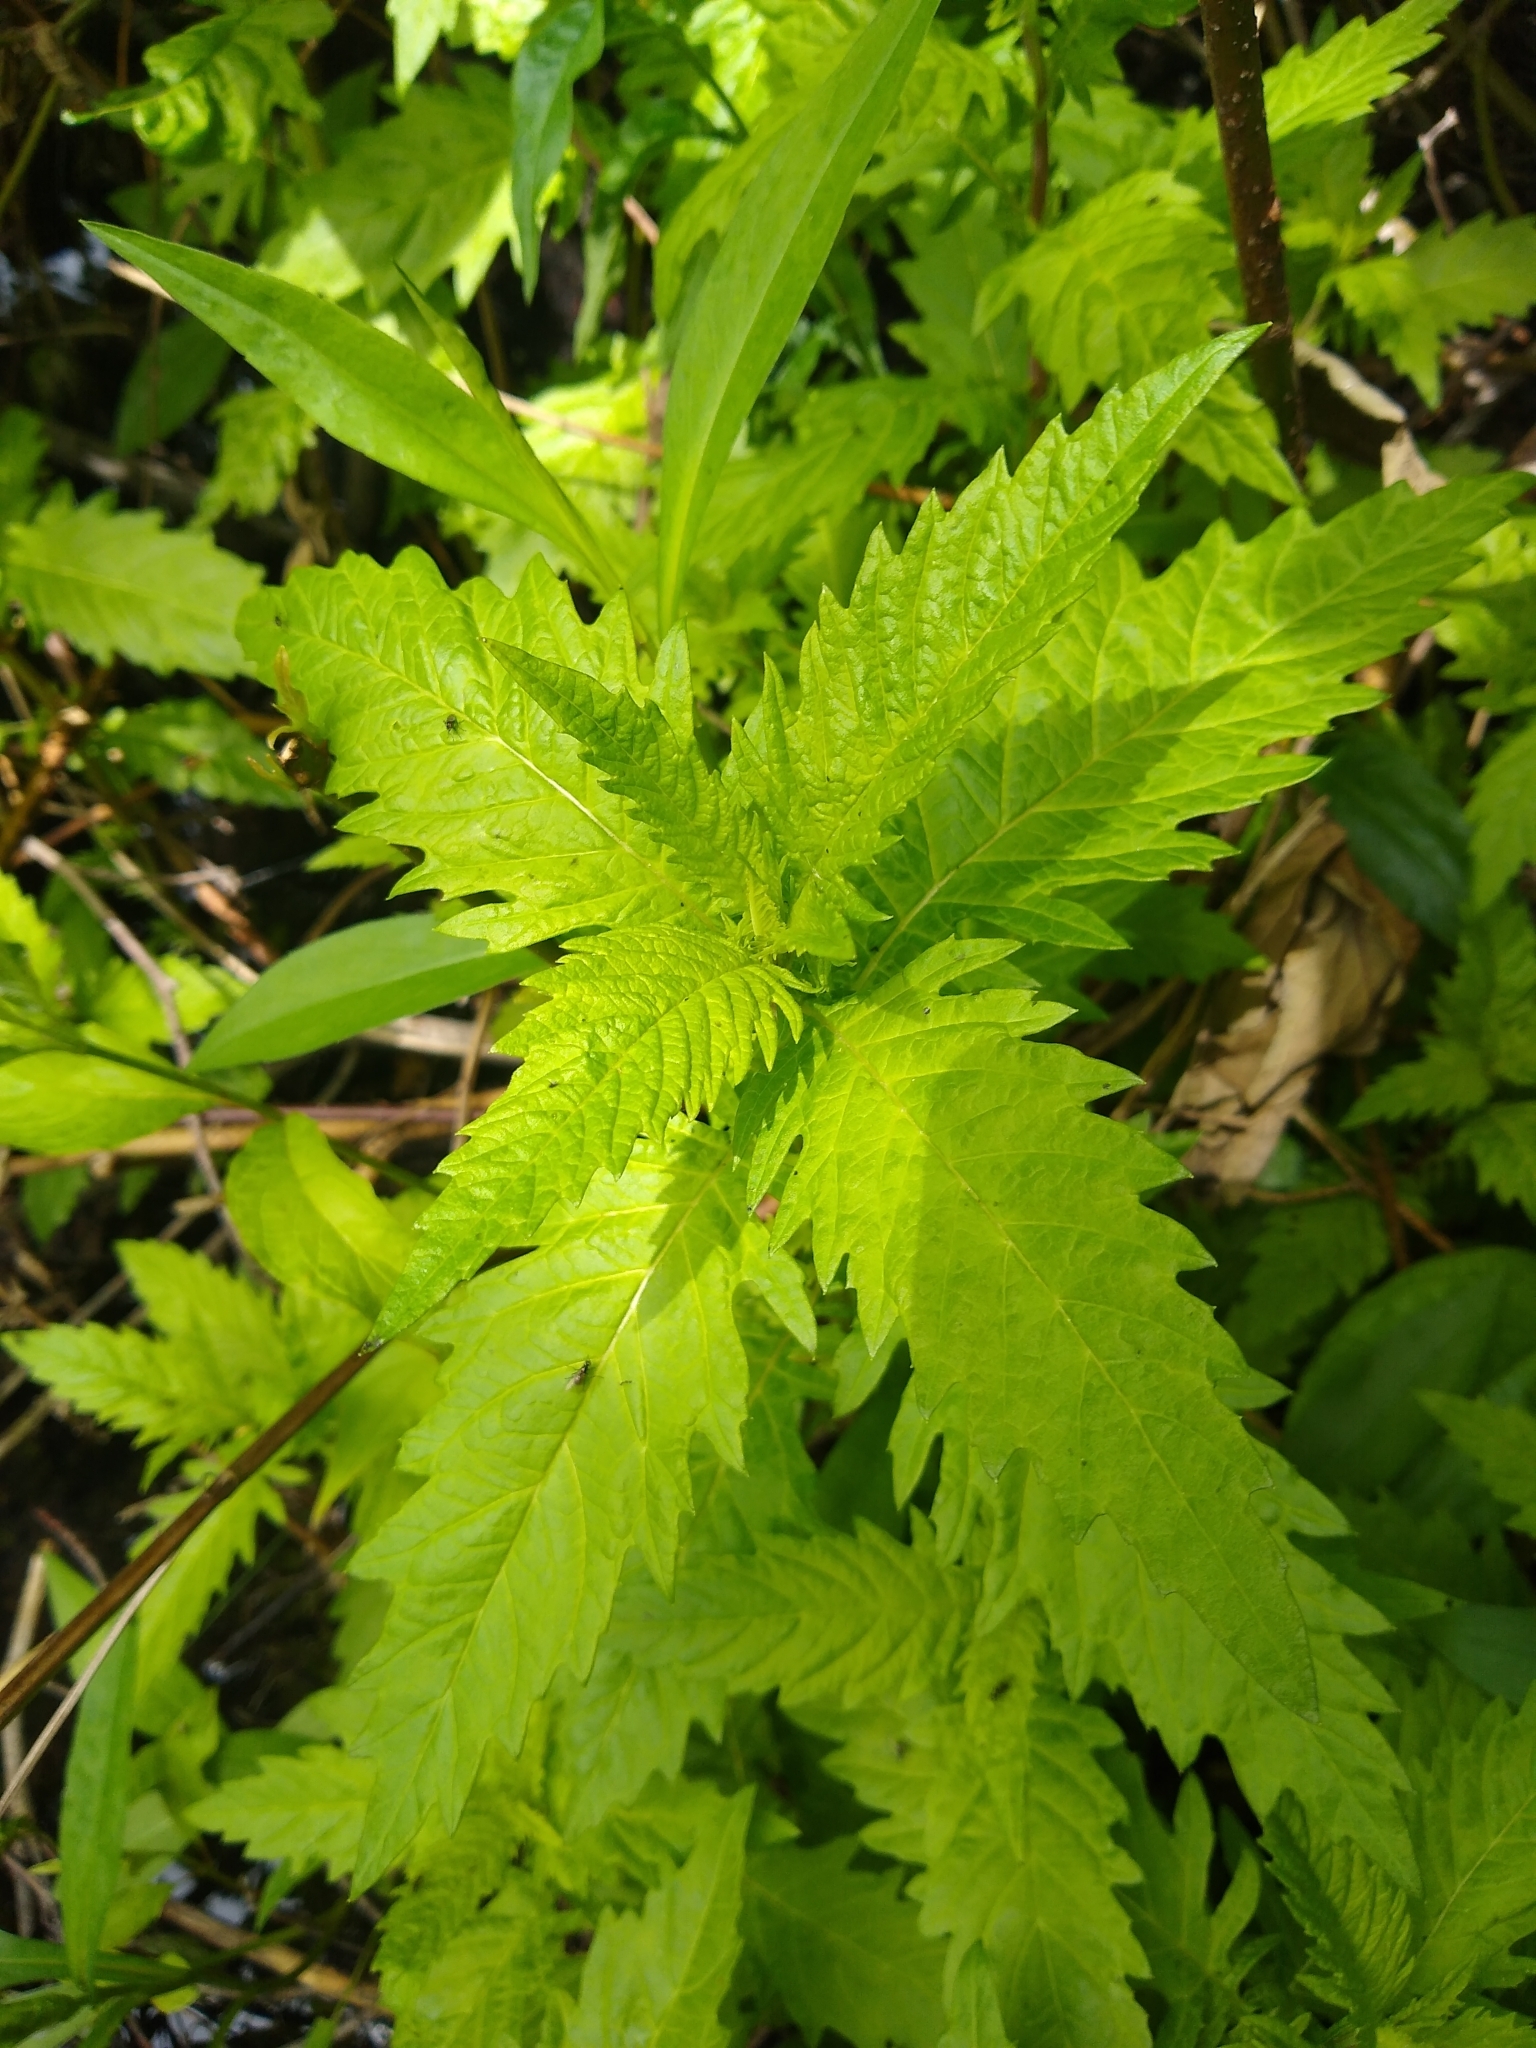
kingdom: Plantae
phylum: Tracheophyta
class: Magnoliopsida
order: Lamiales
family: Lamiaceae
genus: Lycopus
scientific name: Lycopus europaeus
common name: European bugleweed
